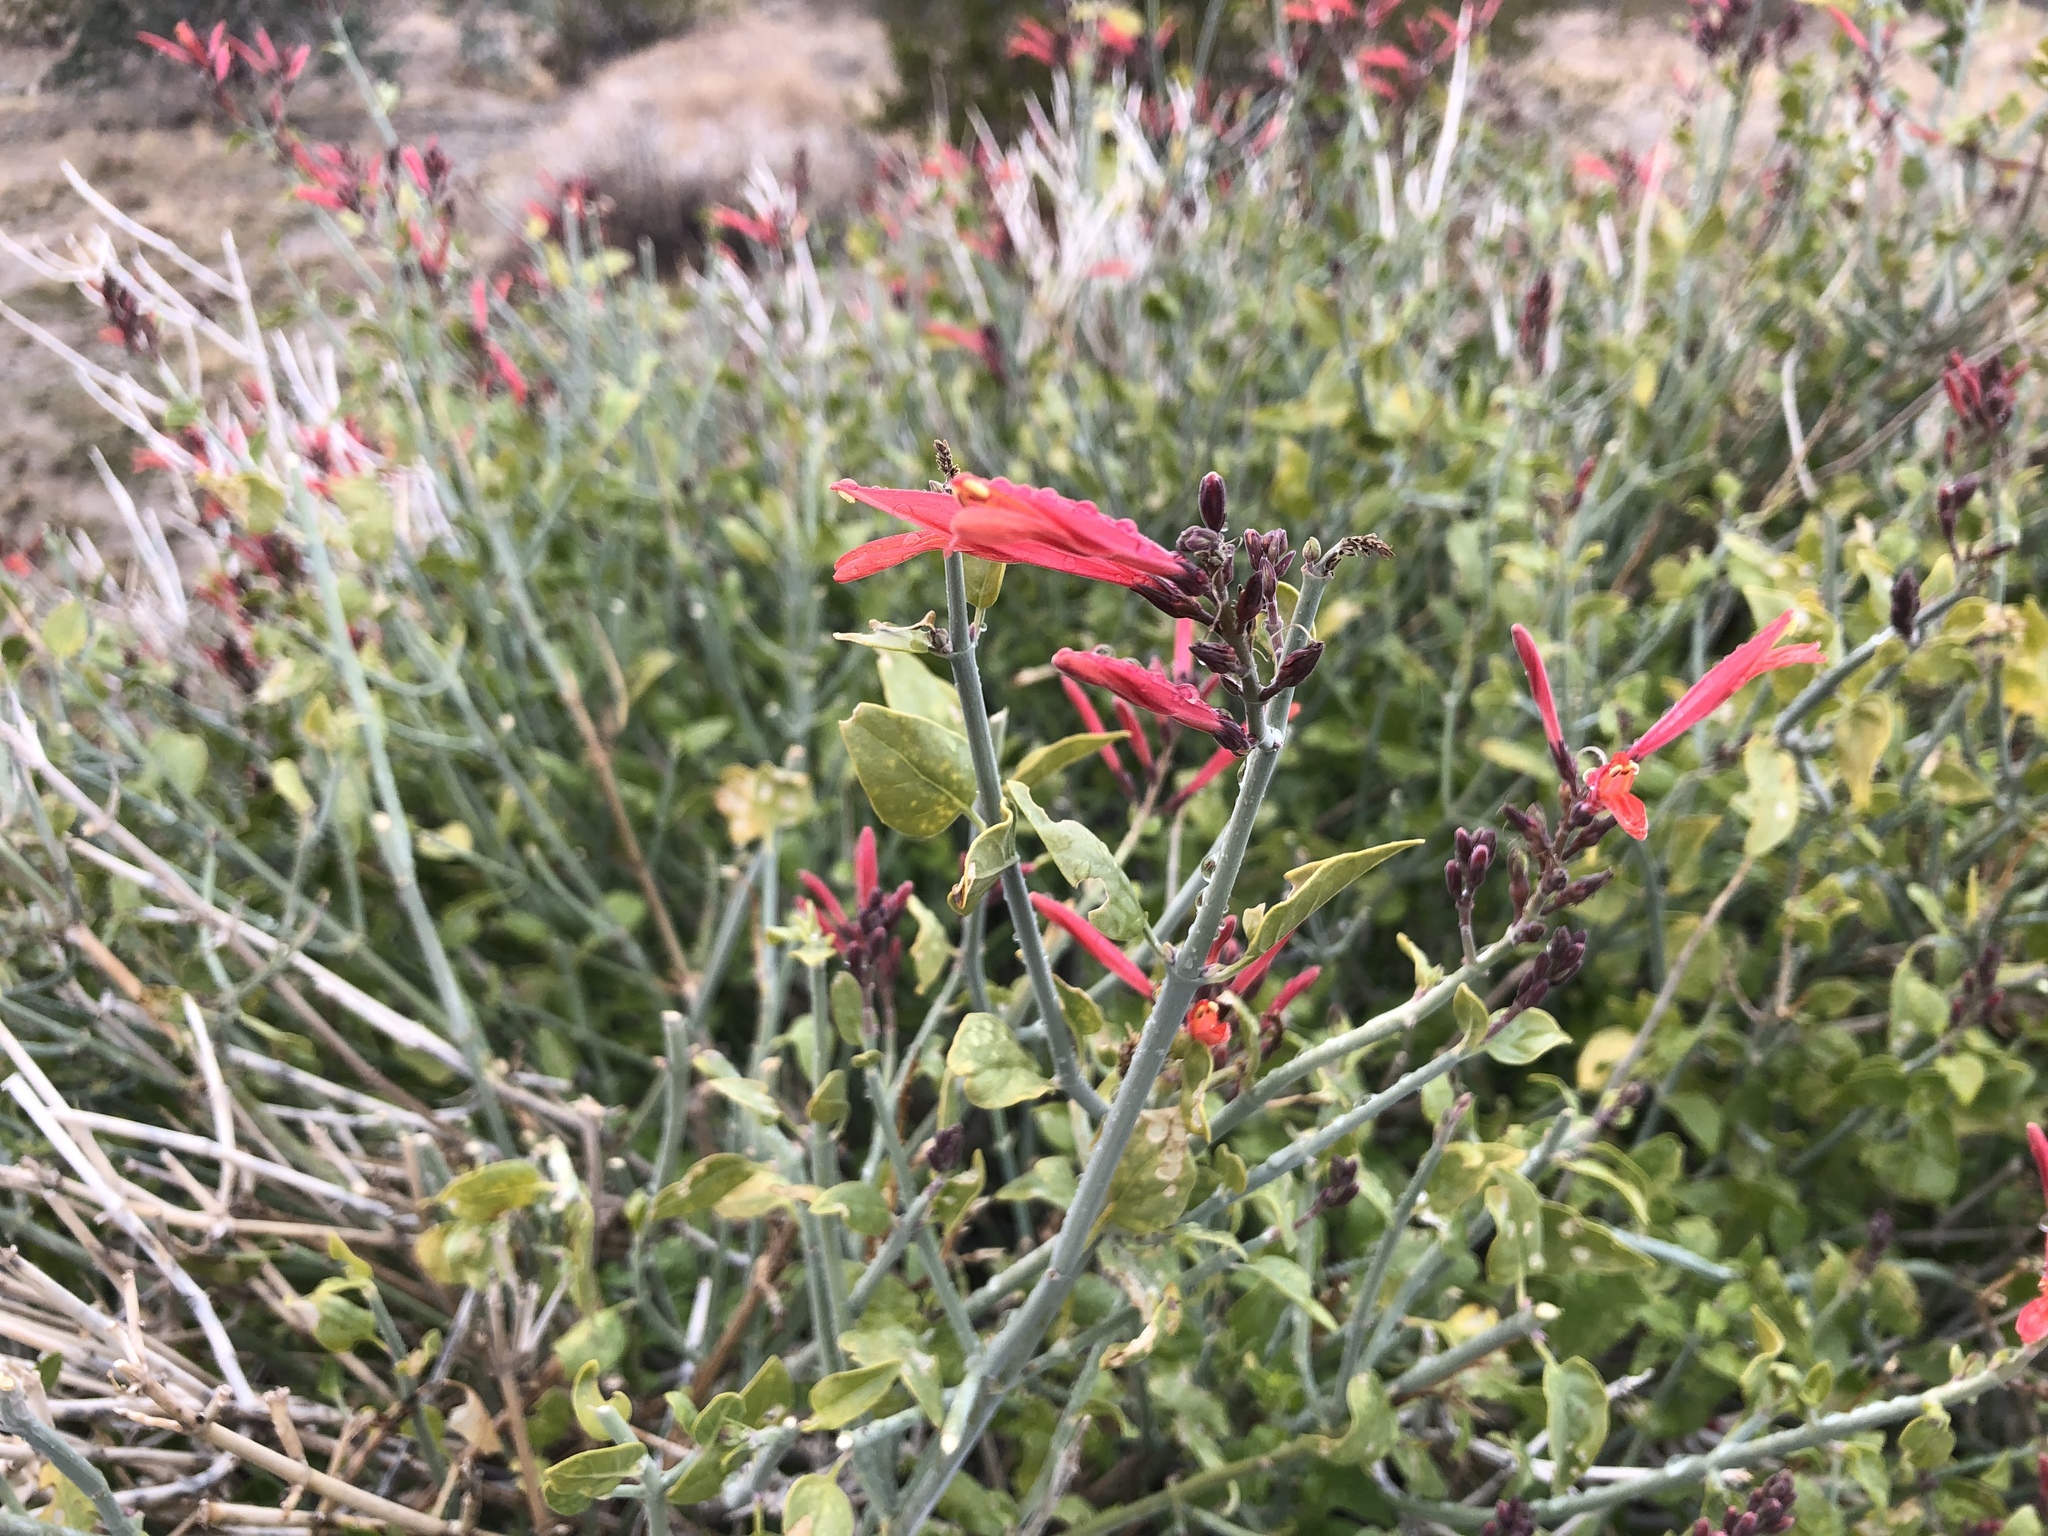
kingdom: Plantae
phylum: Tracheophyta
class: Magnoliopsida
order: Lamiales
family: Acanthaceae
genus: Justicia
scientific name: Justicia californica
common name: Chuparosa-honeysuckle
